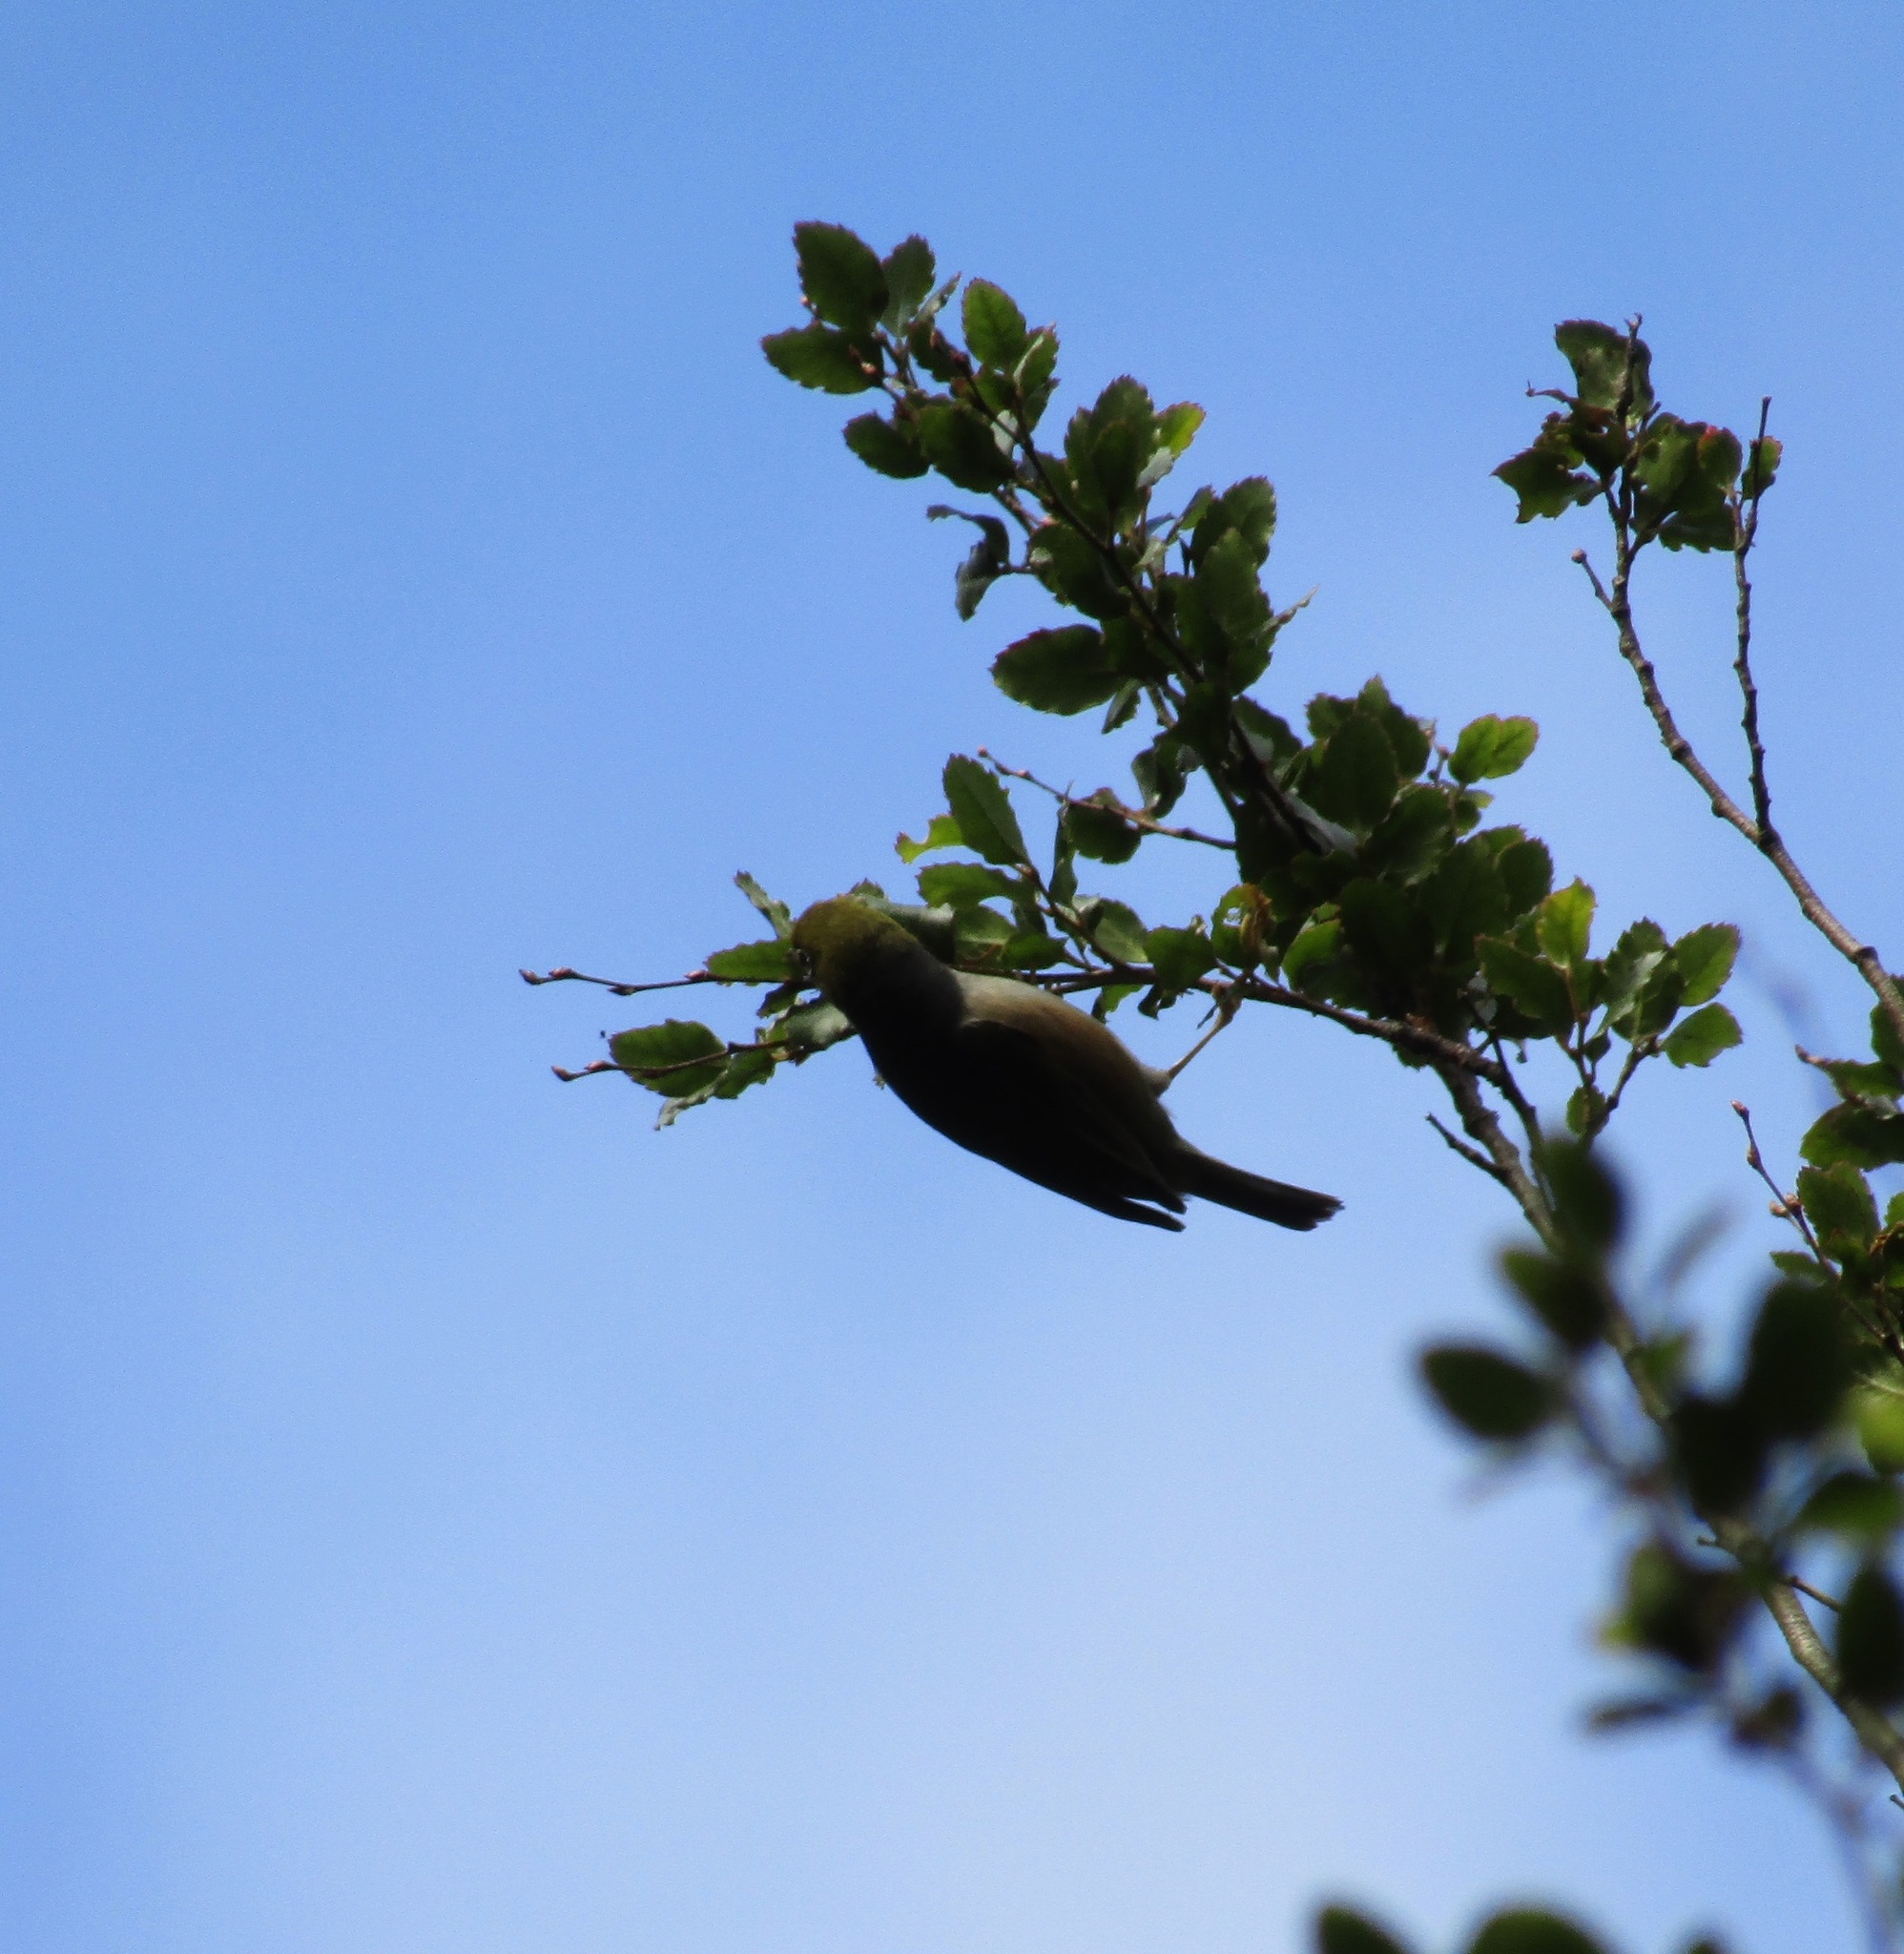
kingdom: Animalia
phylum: Chordata
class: Aves
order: Passeriformes
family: Zosteropidae
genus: Zosterops
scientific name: Zosterops lateralis
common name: Silvereye
